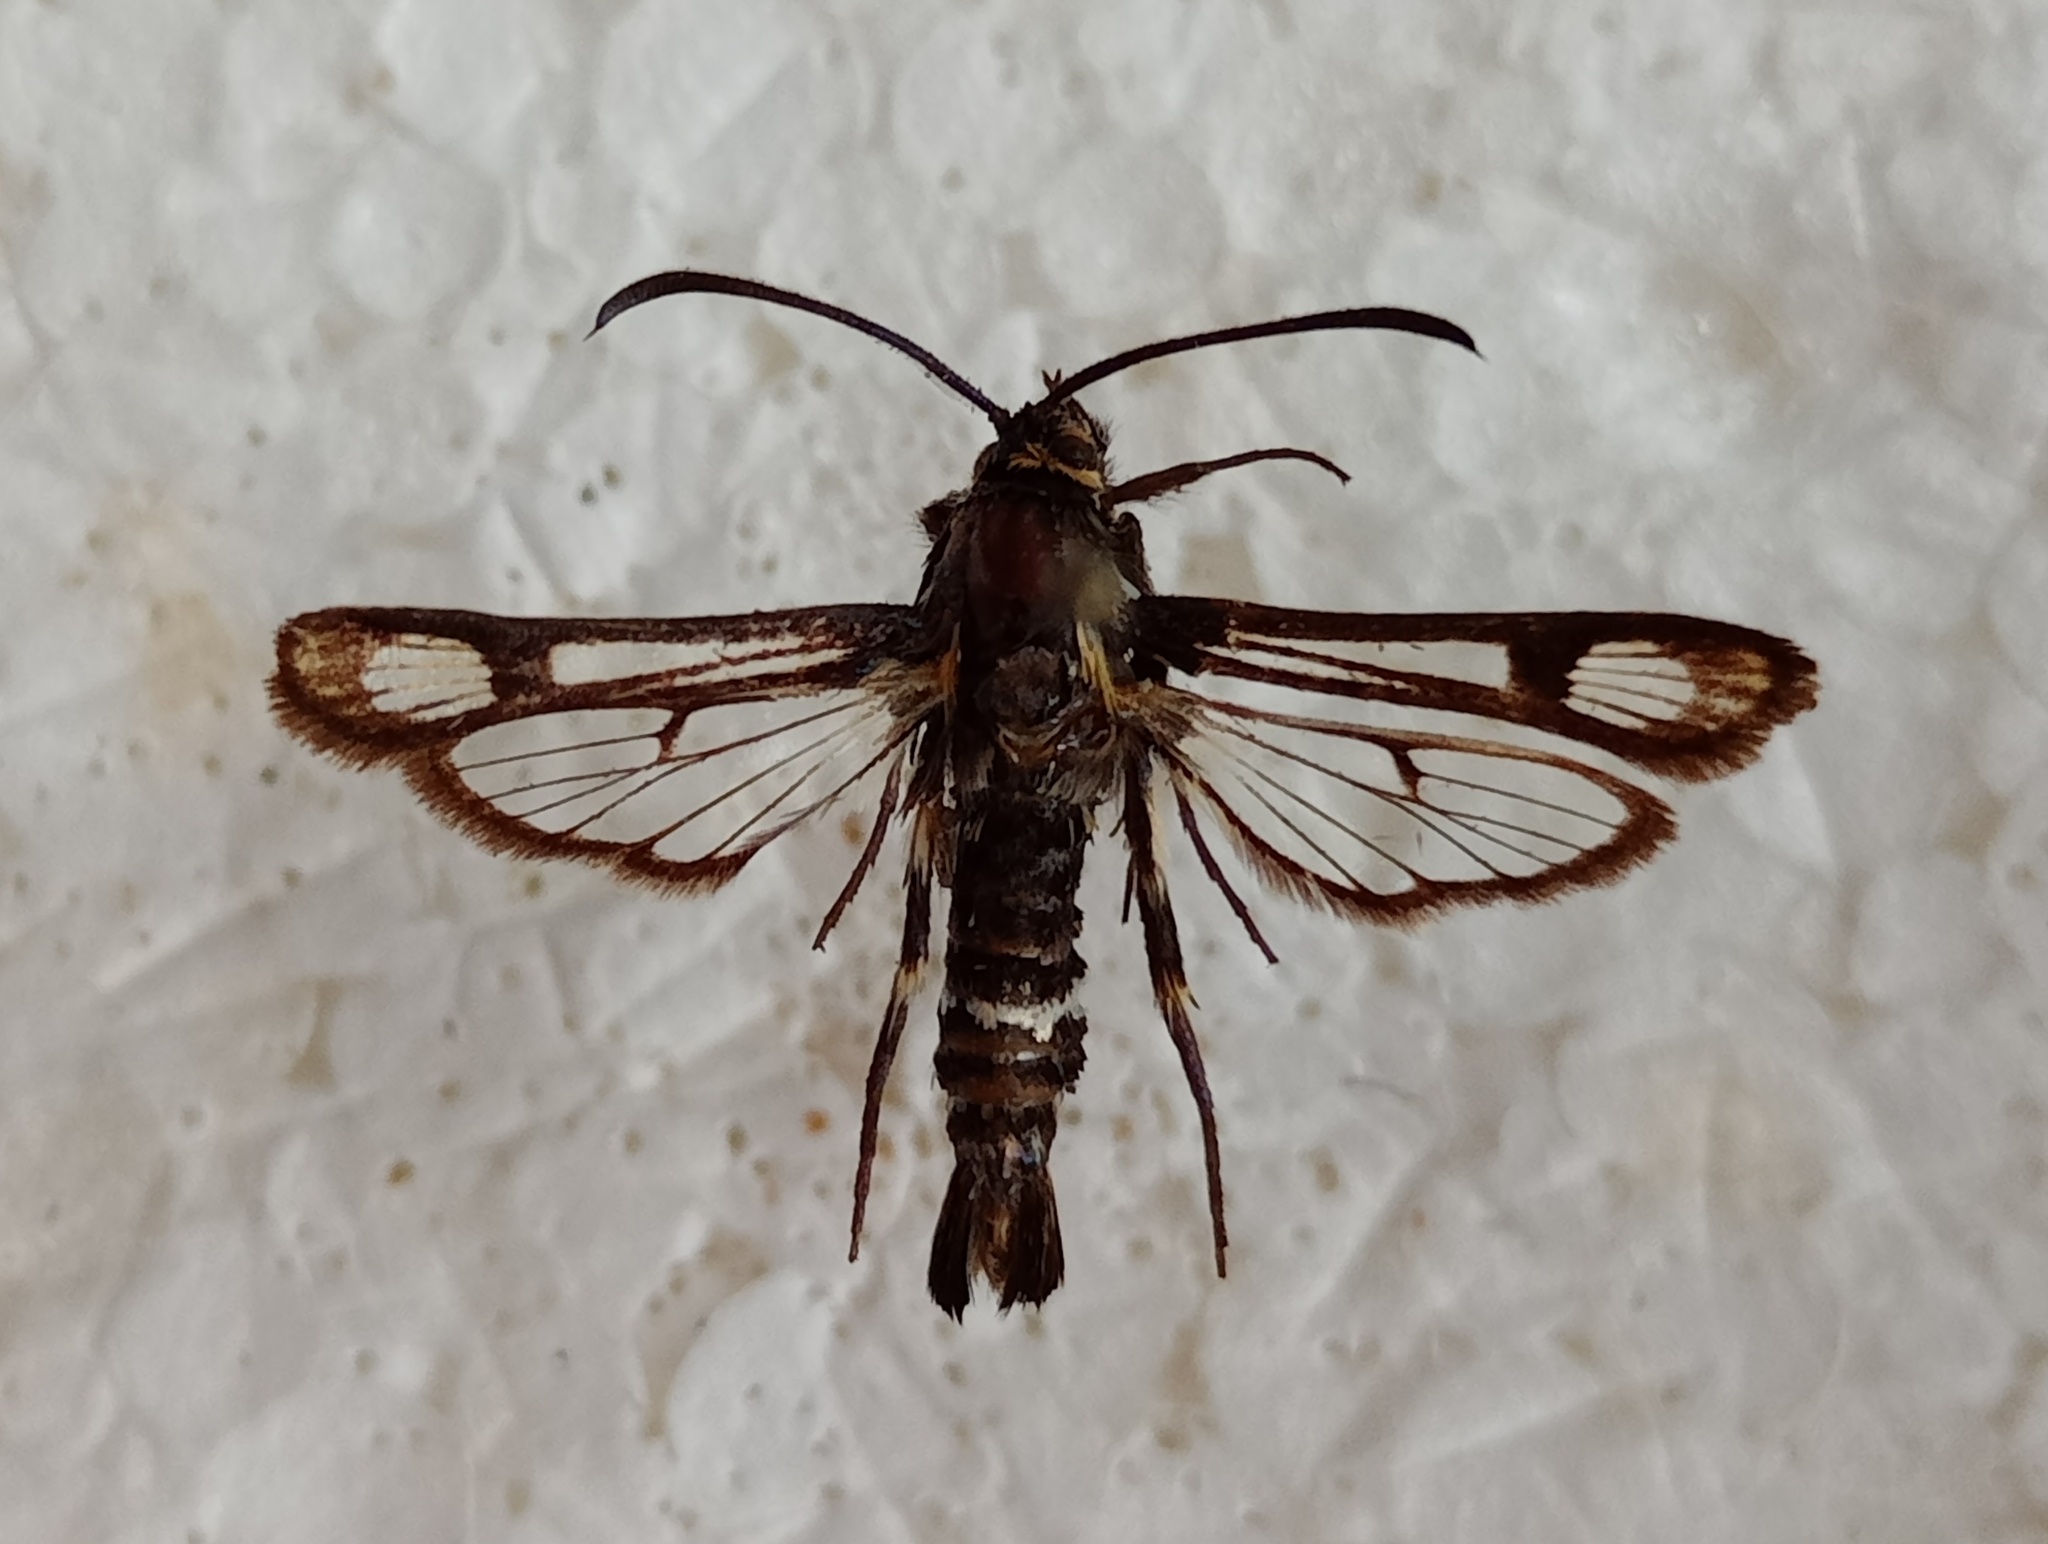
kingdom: Animalia
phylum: Arthropoda
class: Insecta
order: Lepidoptera
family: Sesiidae
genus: Chamaesphecia
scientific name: Chamaesphecia kautti
